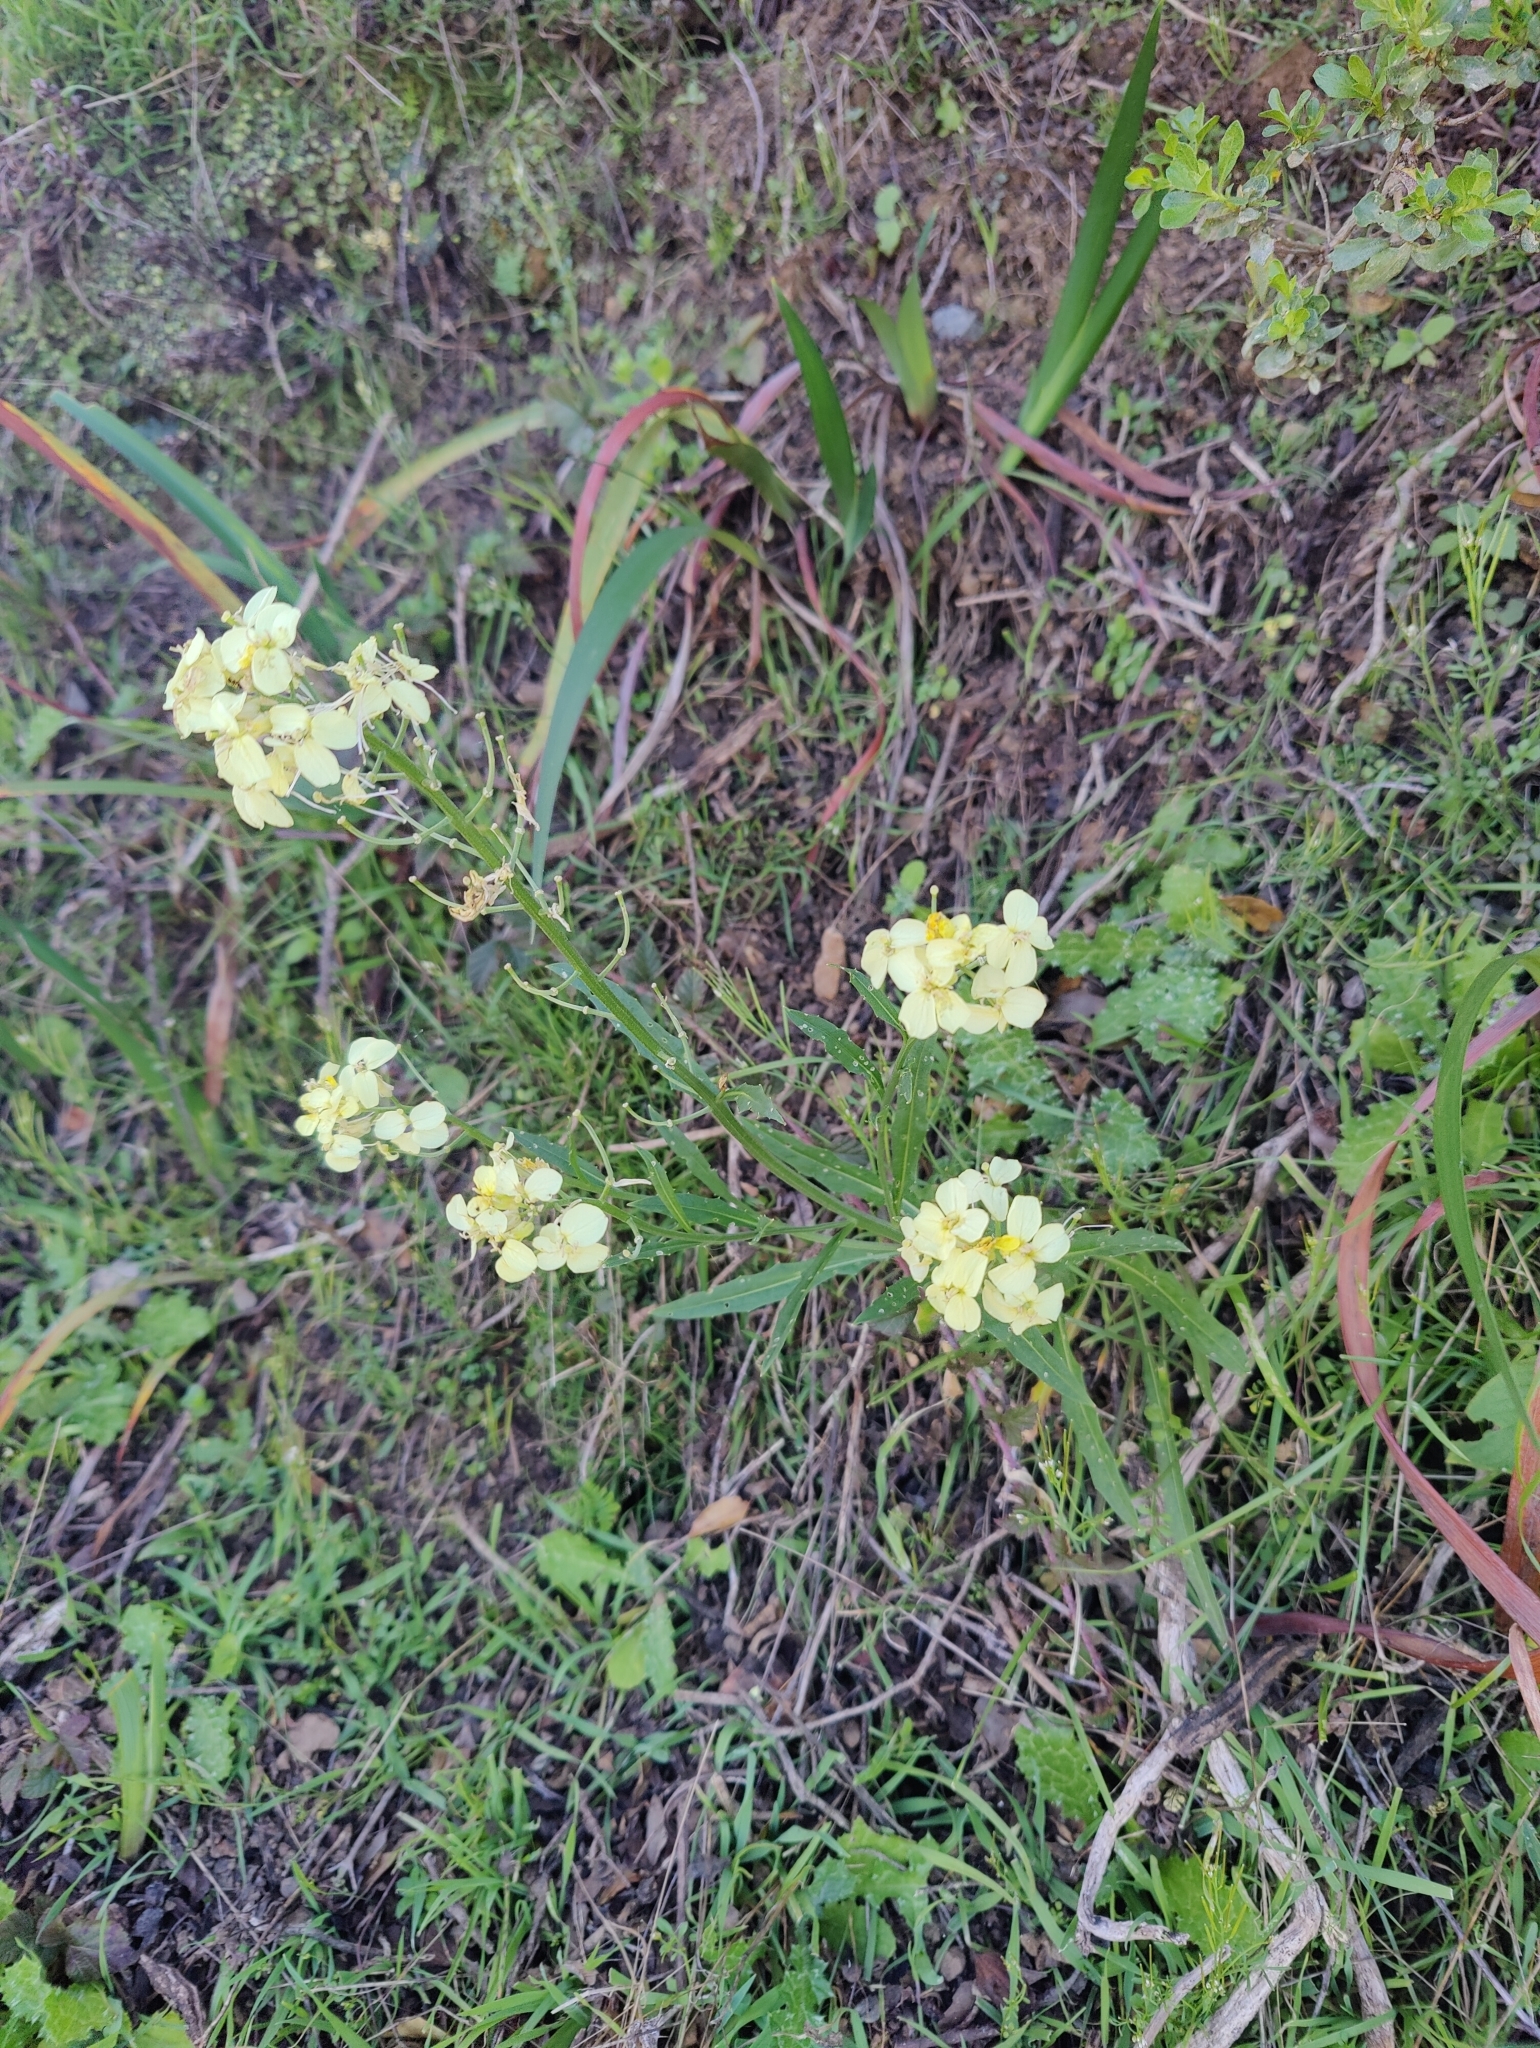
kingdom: Plantae
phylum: Tracheophyta
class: Magnoliopsida
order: Brassicales
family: Brassicaceae
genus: Erysimum
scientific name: Erysimum franciscanum
